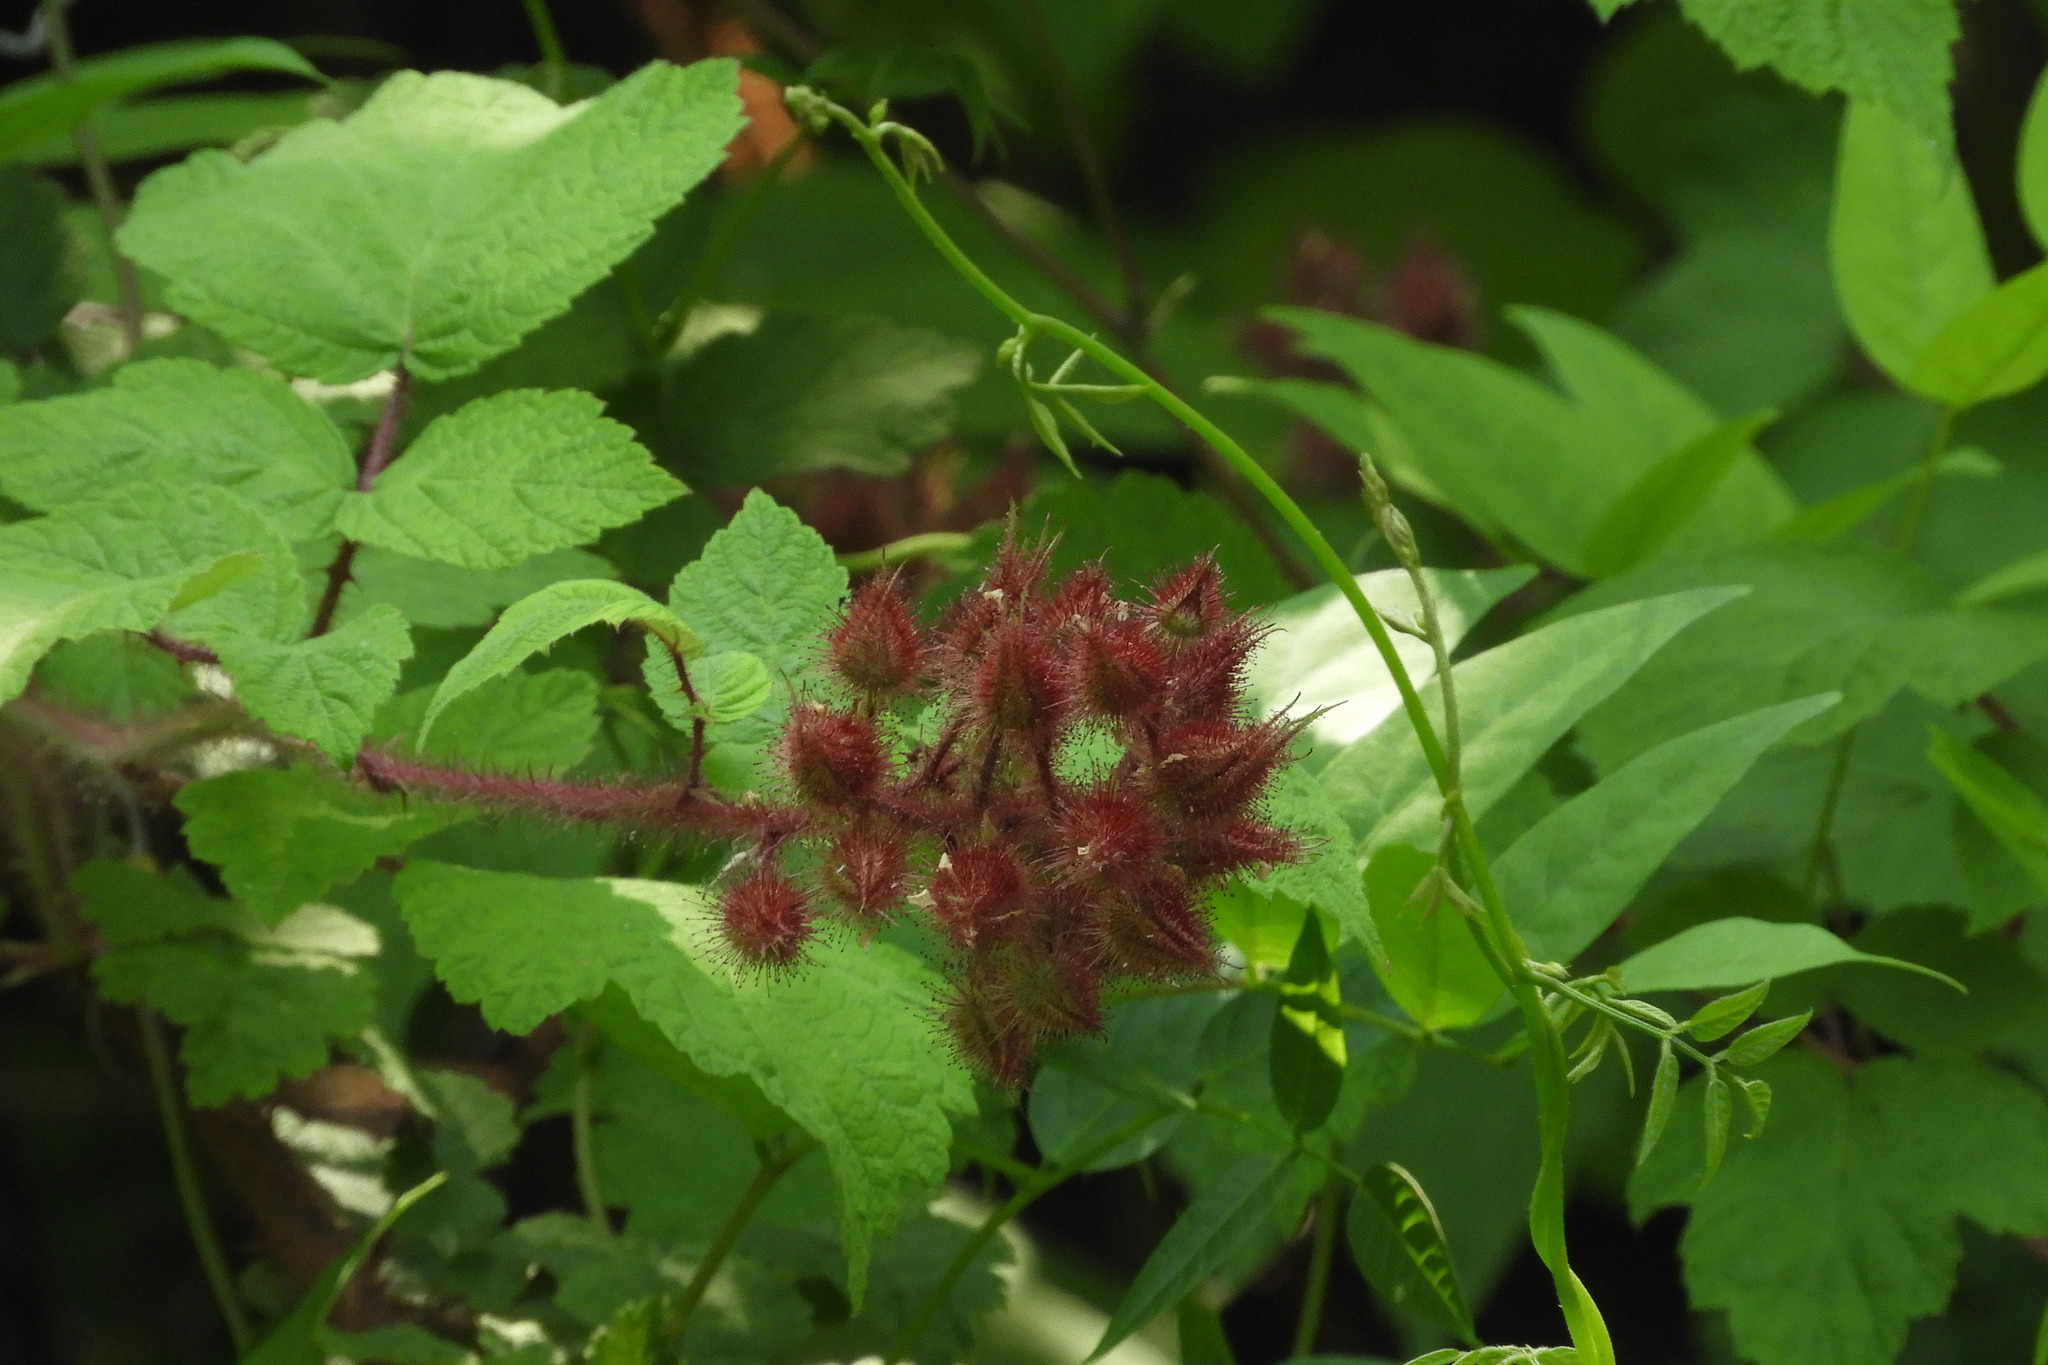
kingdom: Plantae
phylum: Tracheophyta
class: Magnoliopsida
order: Rosales
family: Rosaceae
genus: Rubus
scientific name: Rubus phoenicolasius
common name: Japanese wineberry
